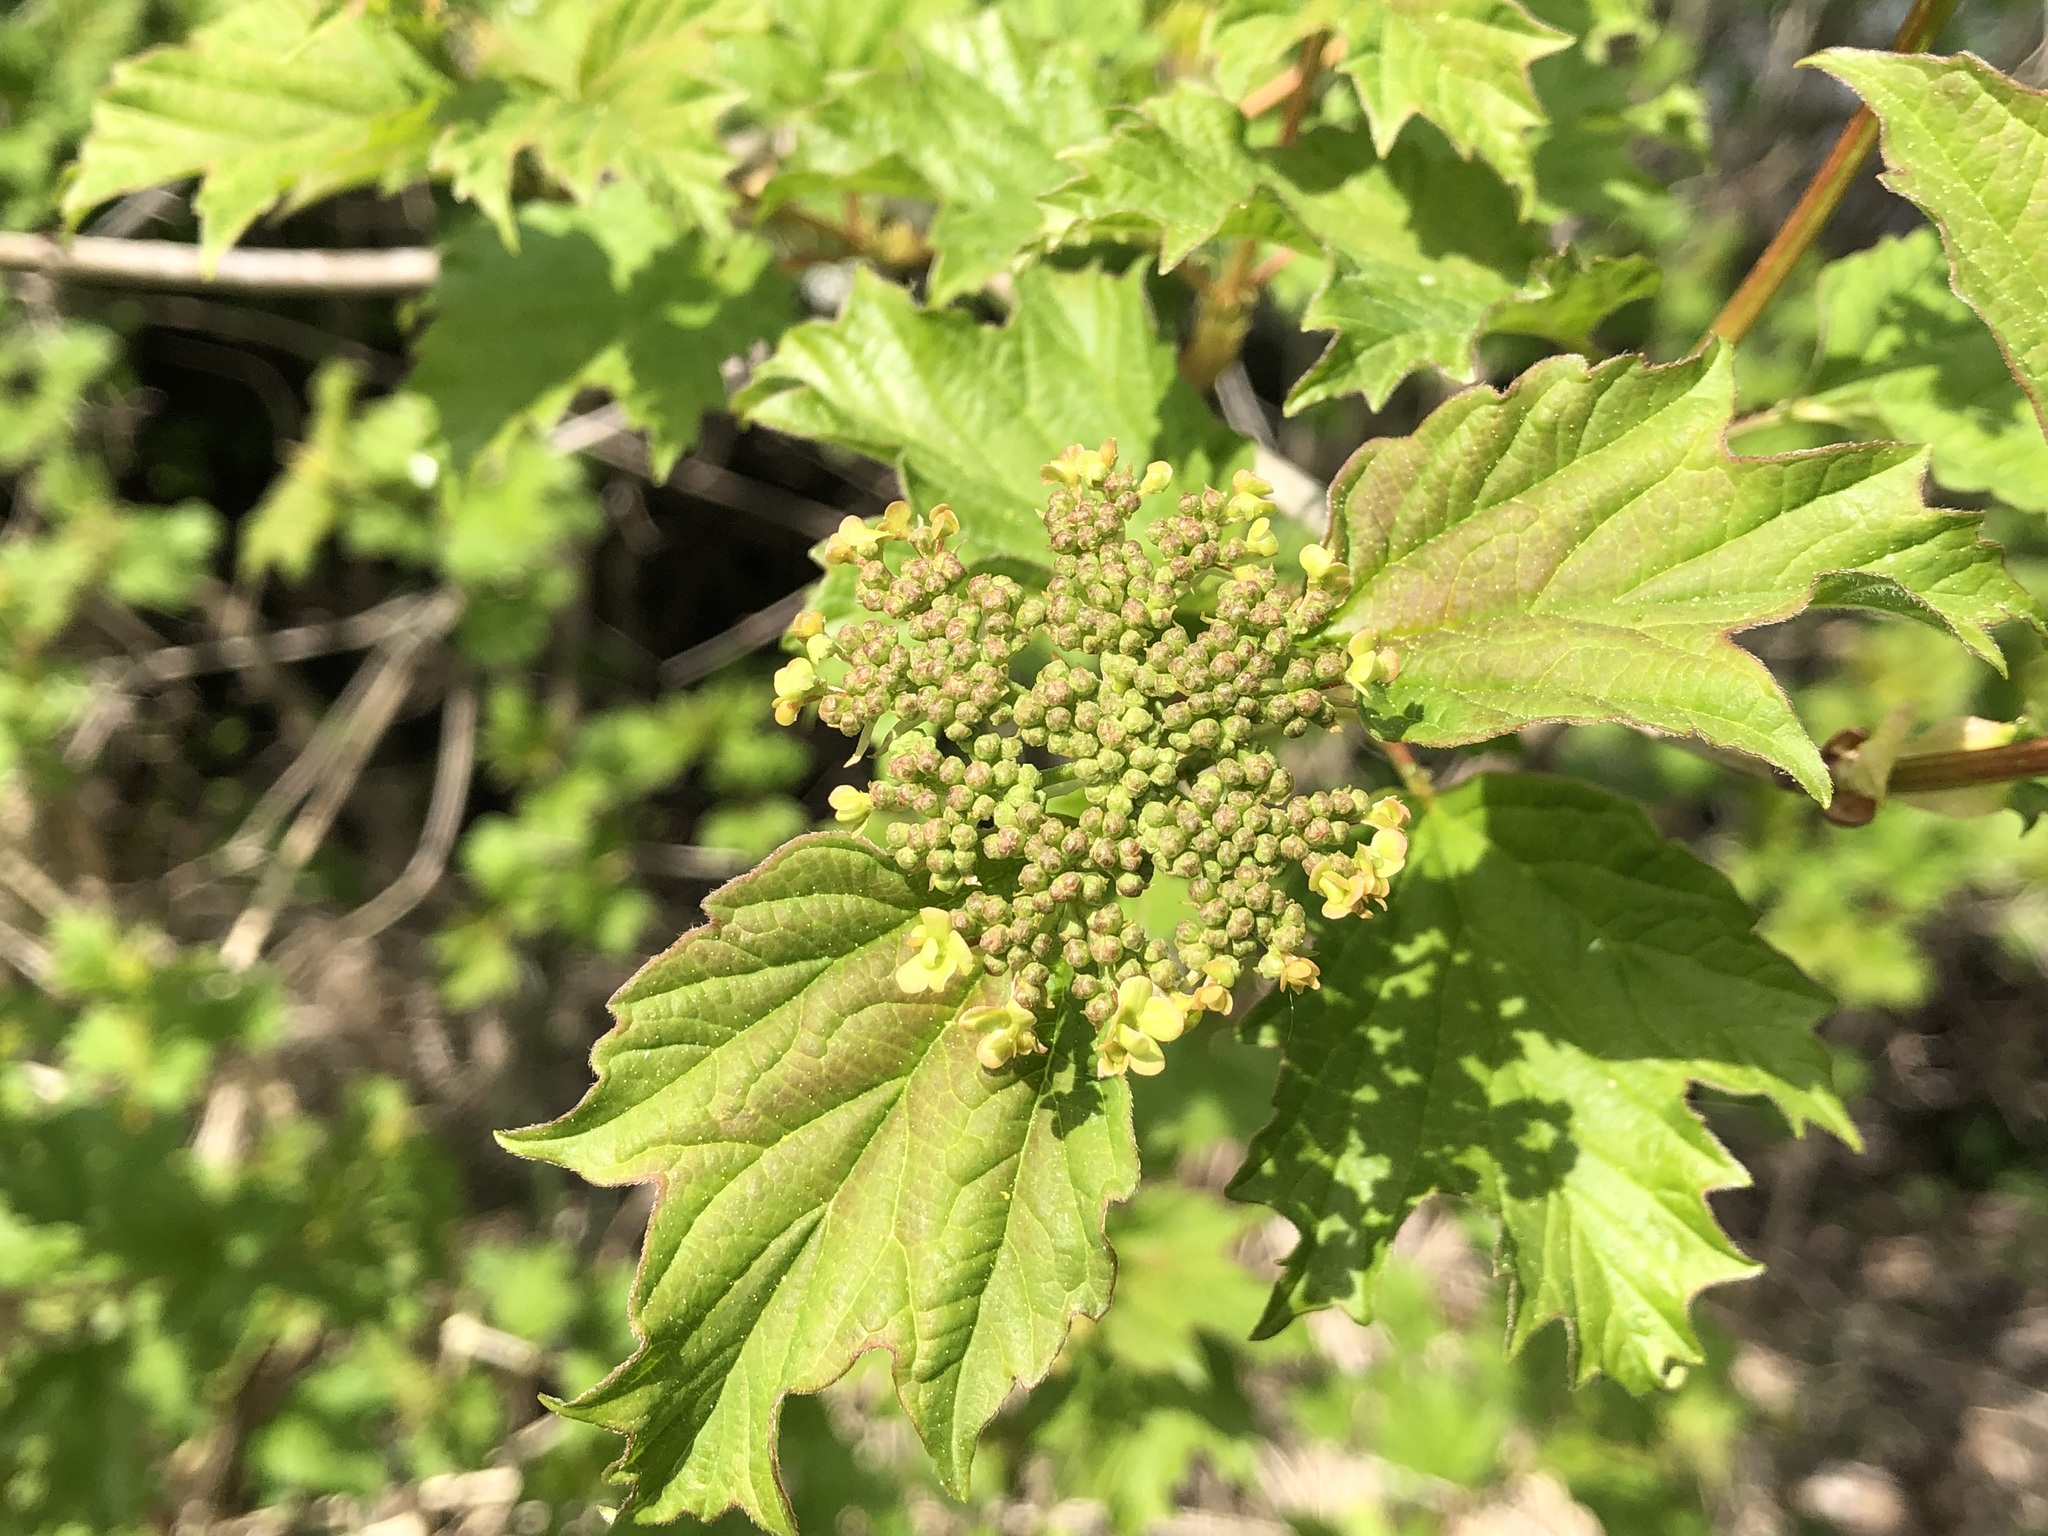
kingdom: Plantae
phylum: Tracheophyta
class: Magnoliopsida
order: Dipsacales
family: Viburnaceae
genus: Viburnum
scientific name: Viburnum opulus
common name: Guelder-rose
